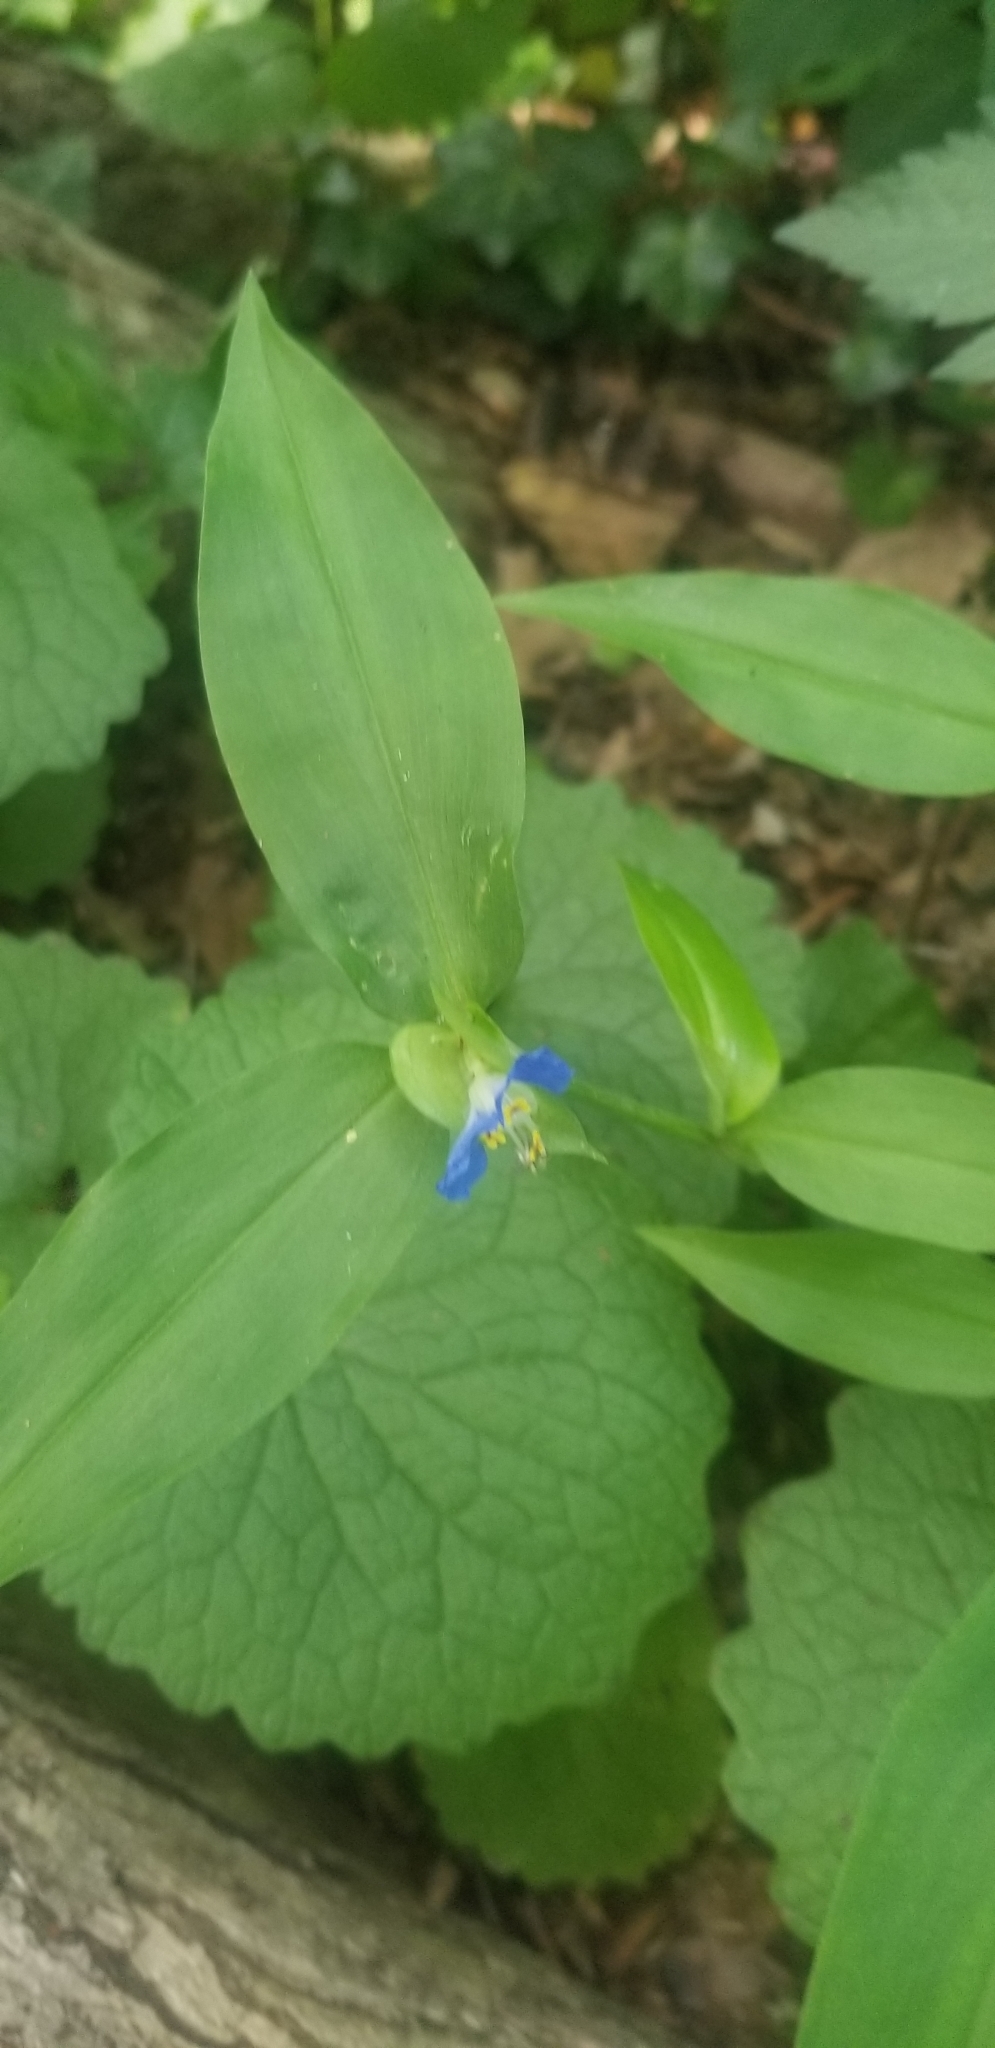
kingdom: Plantae
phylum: Tracheophyta
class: Liliopsida
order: Commelinales
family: Commelinaceae
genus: Commelina
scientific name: Commelina communis
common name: Asiatic dayflower
